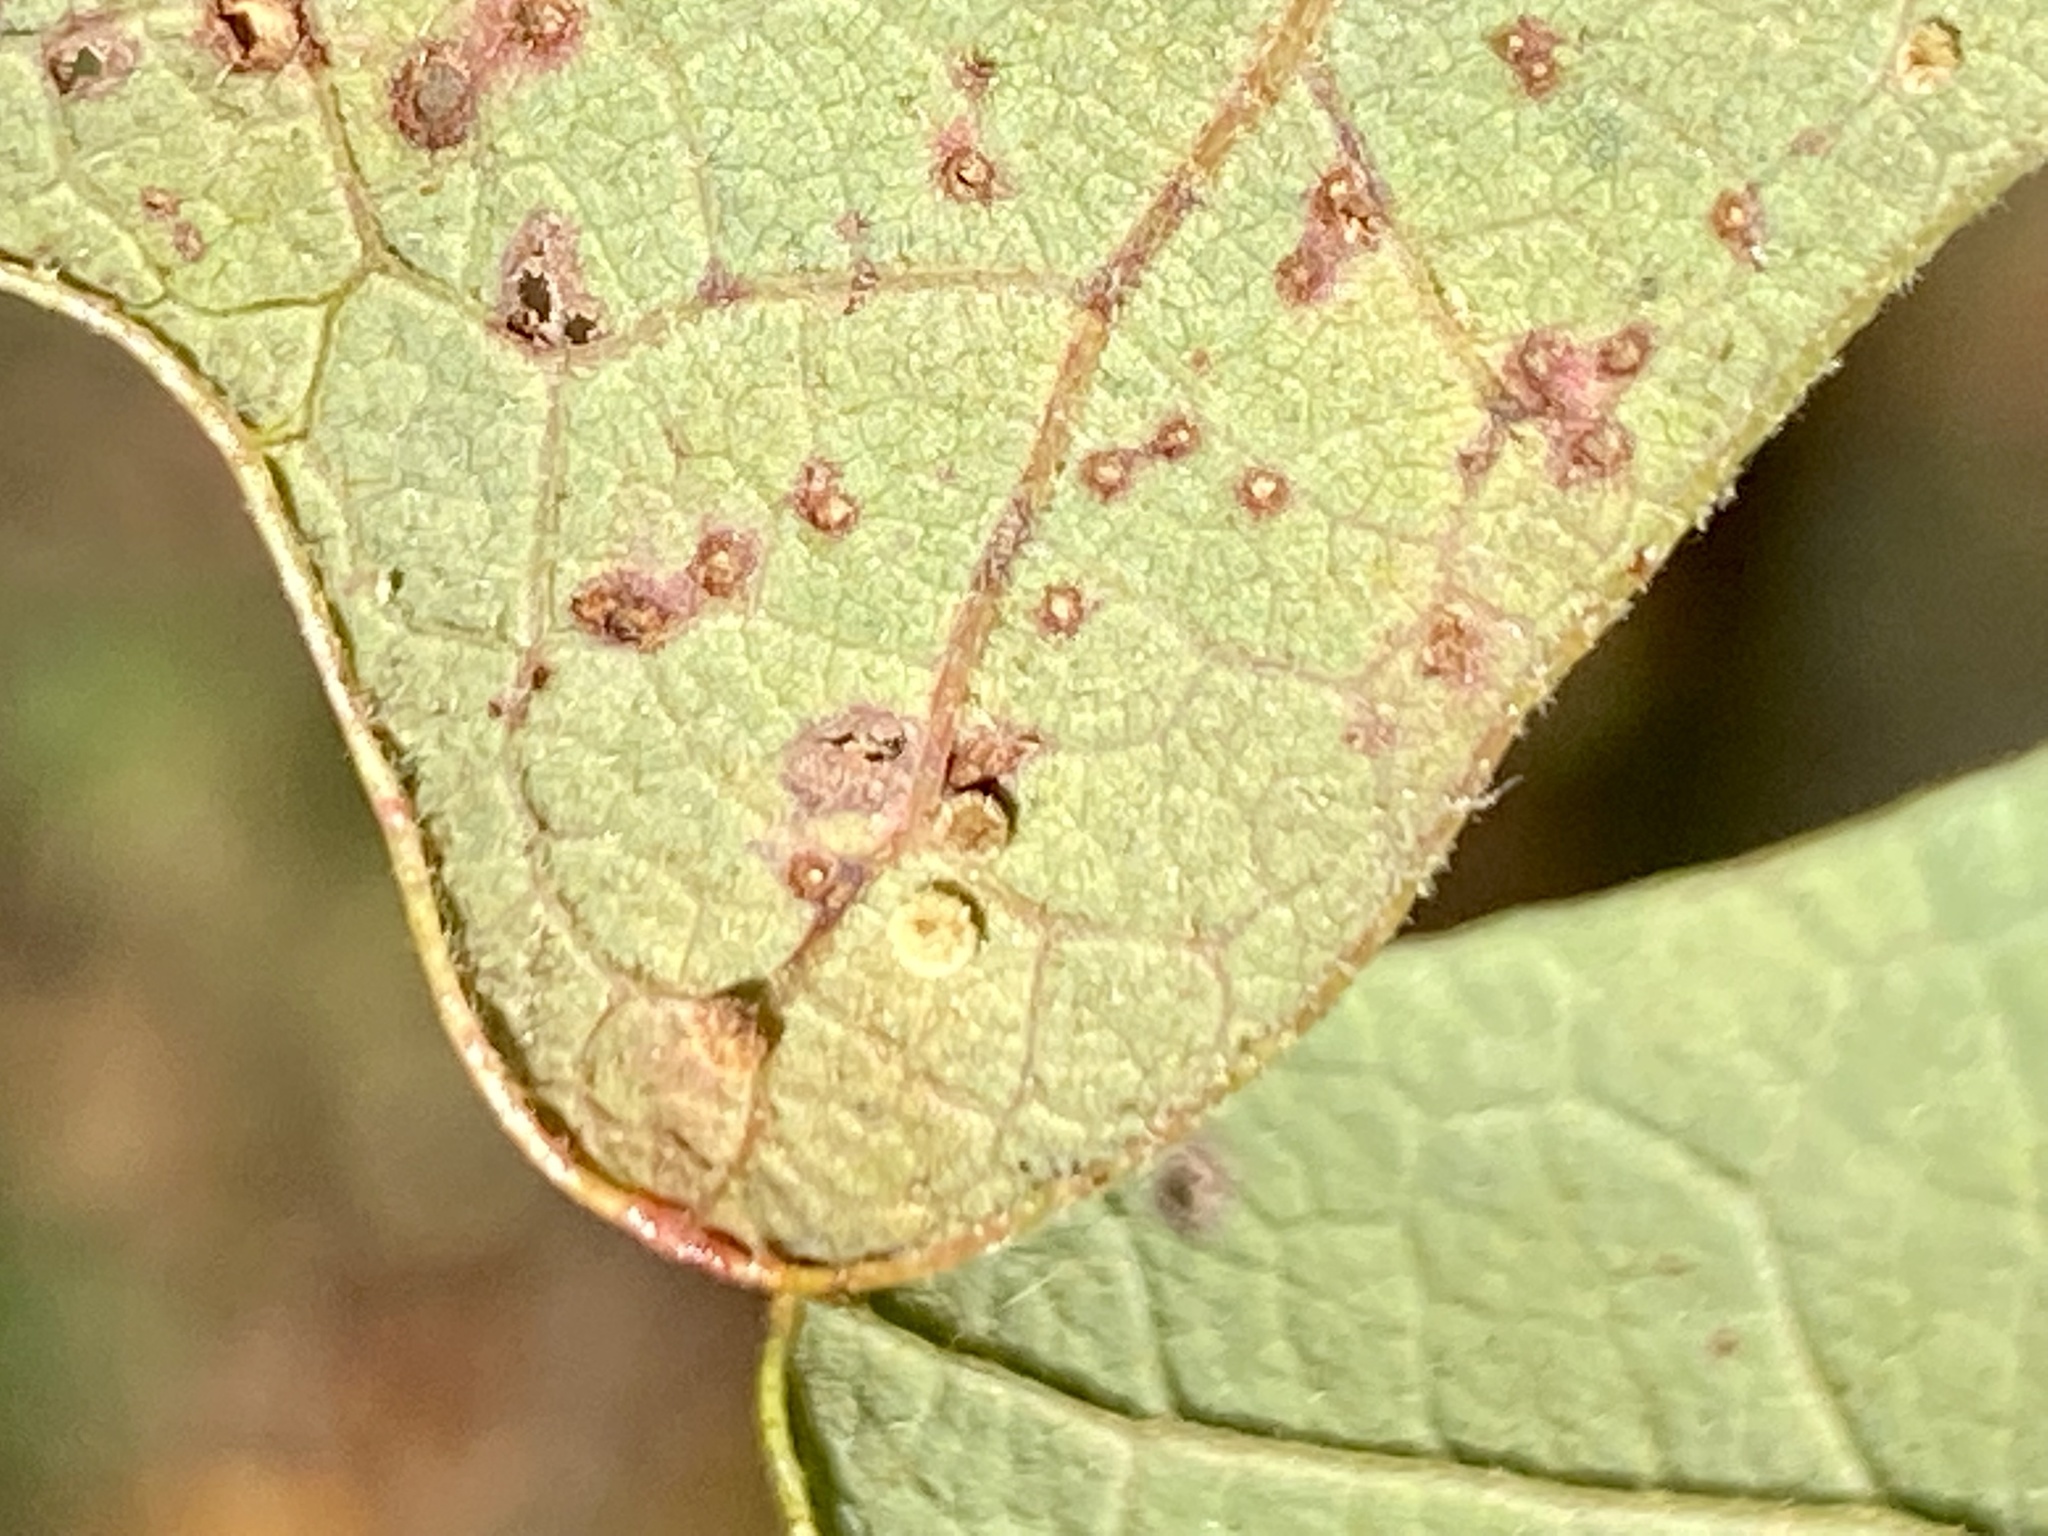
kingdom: Animalia
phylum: Arthropoda
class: Insecta
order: Hymenoptera
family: Cynipidae
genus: Neuroterus
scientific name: Neuroterus
